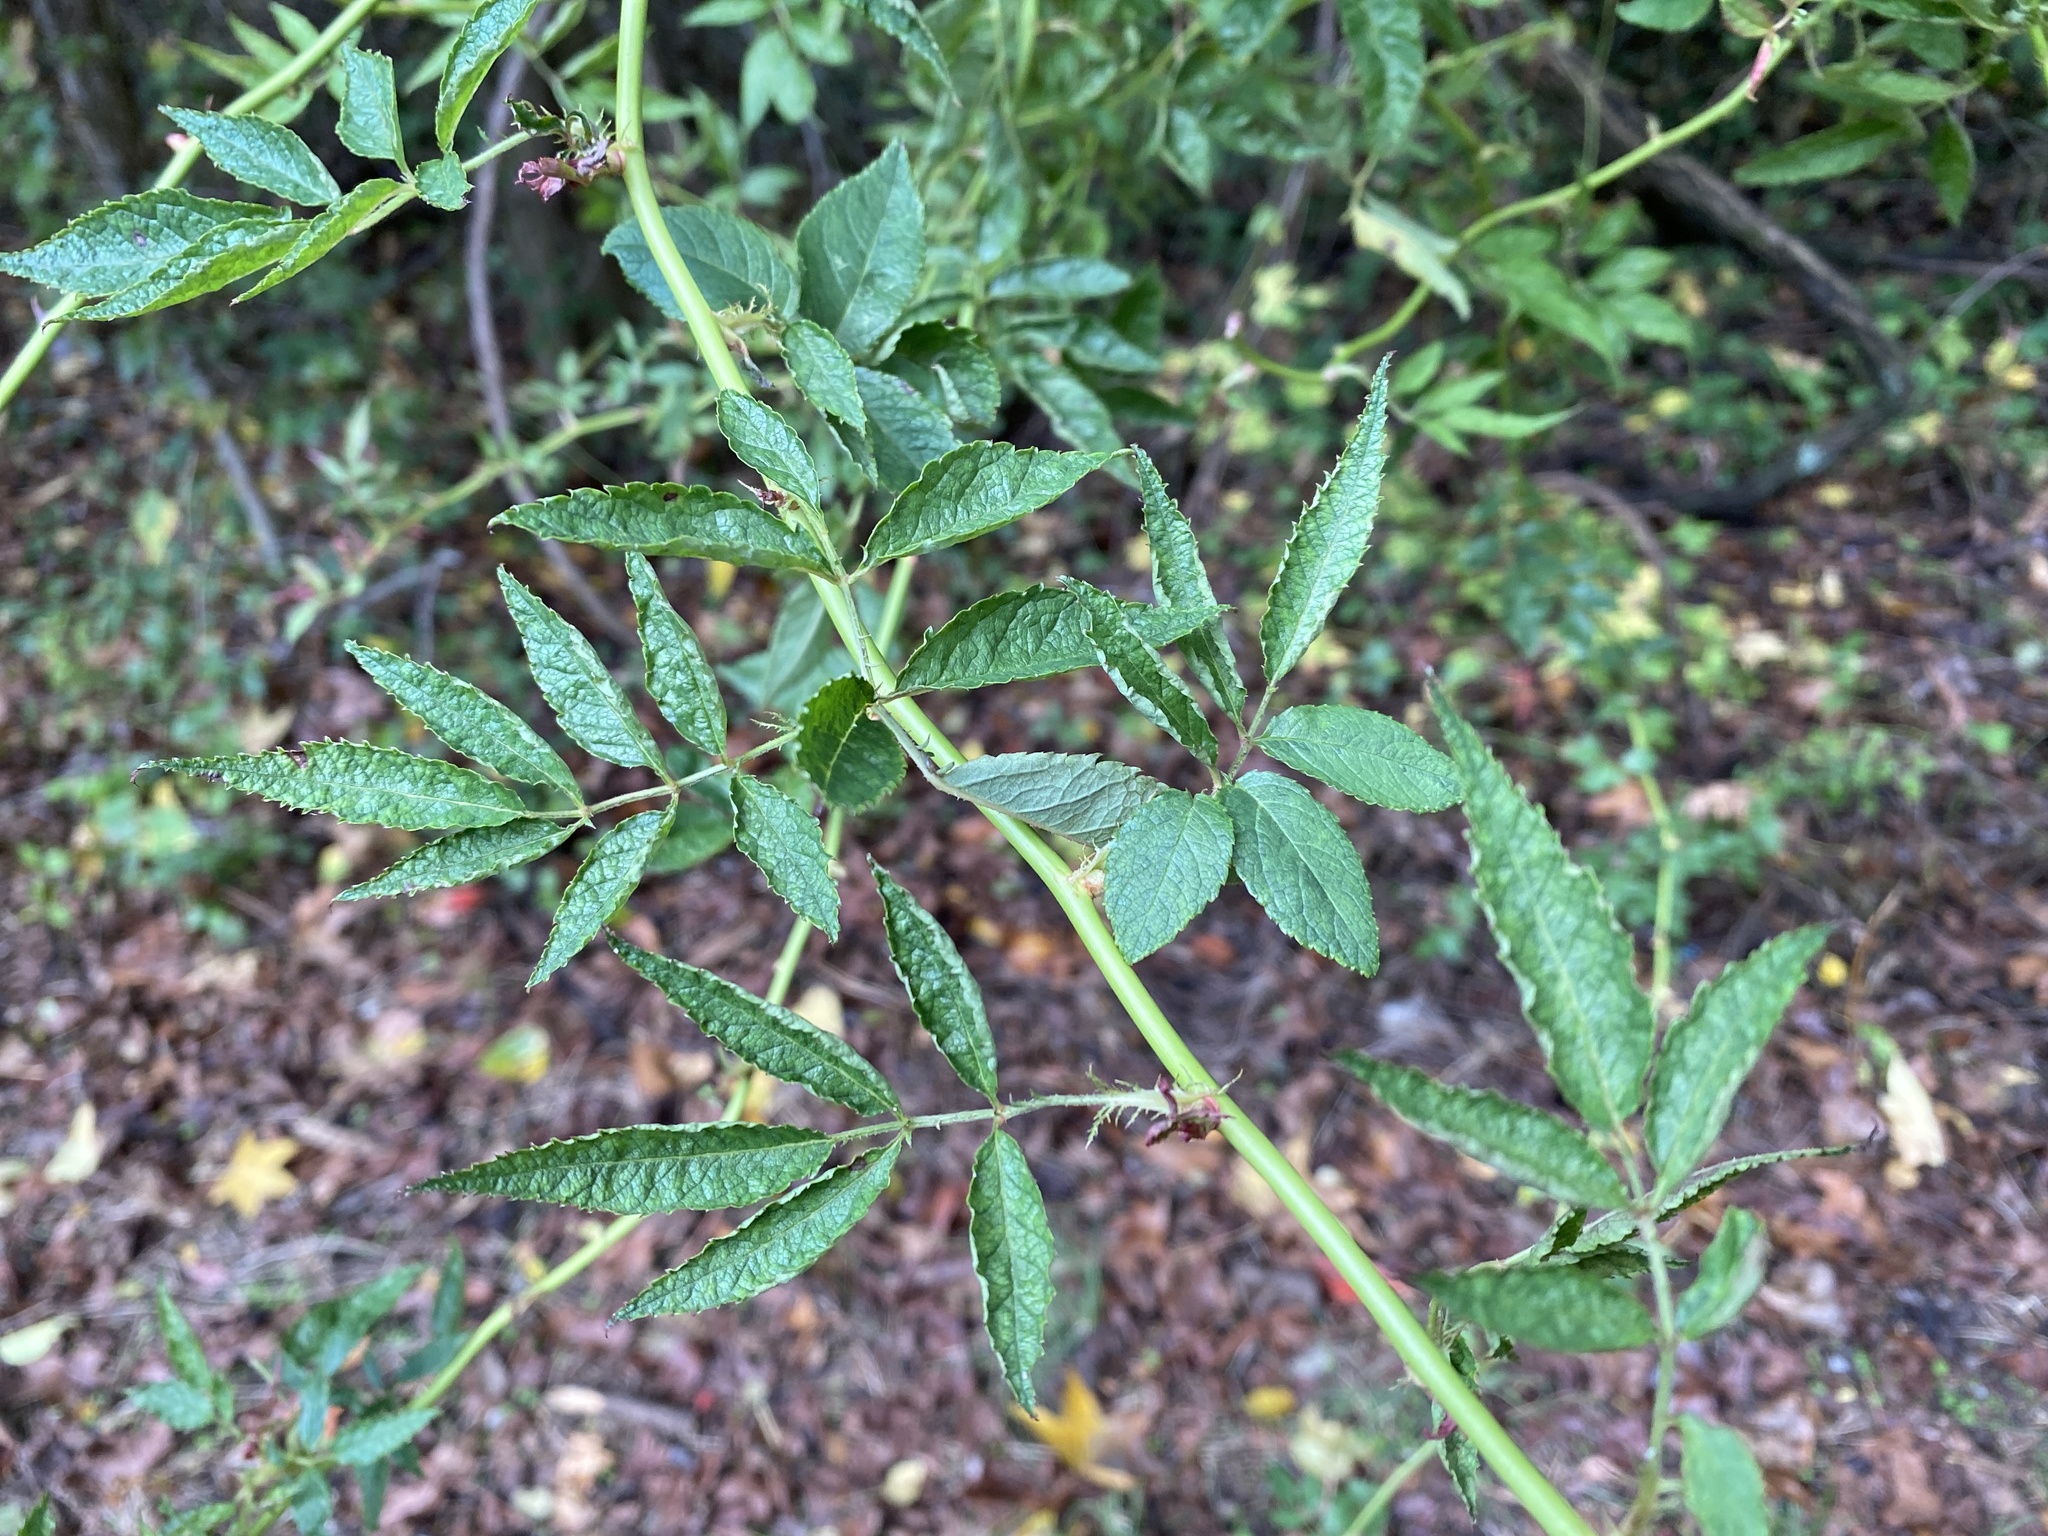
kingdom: Plantae
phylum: Tracheophyta
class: Magnoliopsida
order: Rosales
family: Rosaceae
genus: Rosa
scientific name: Rosa multiflora
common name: Multiflora rose
